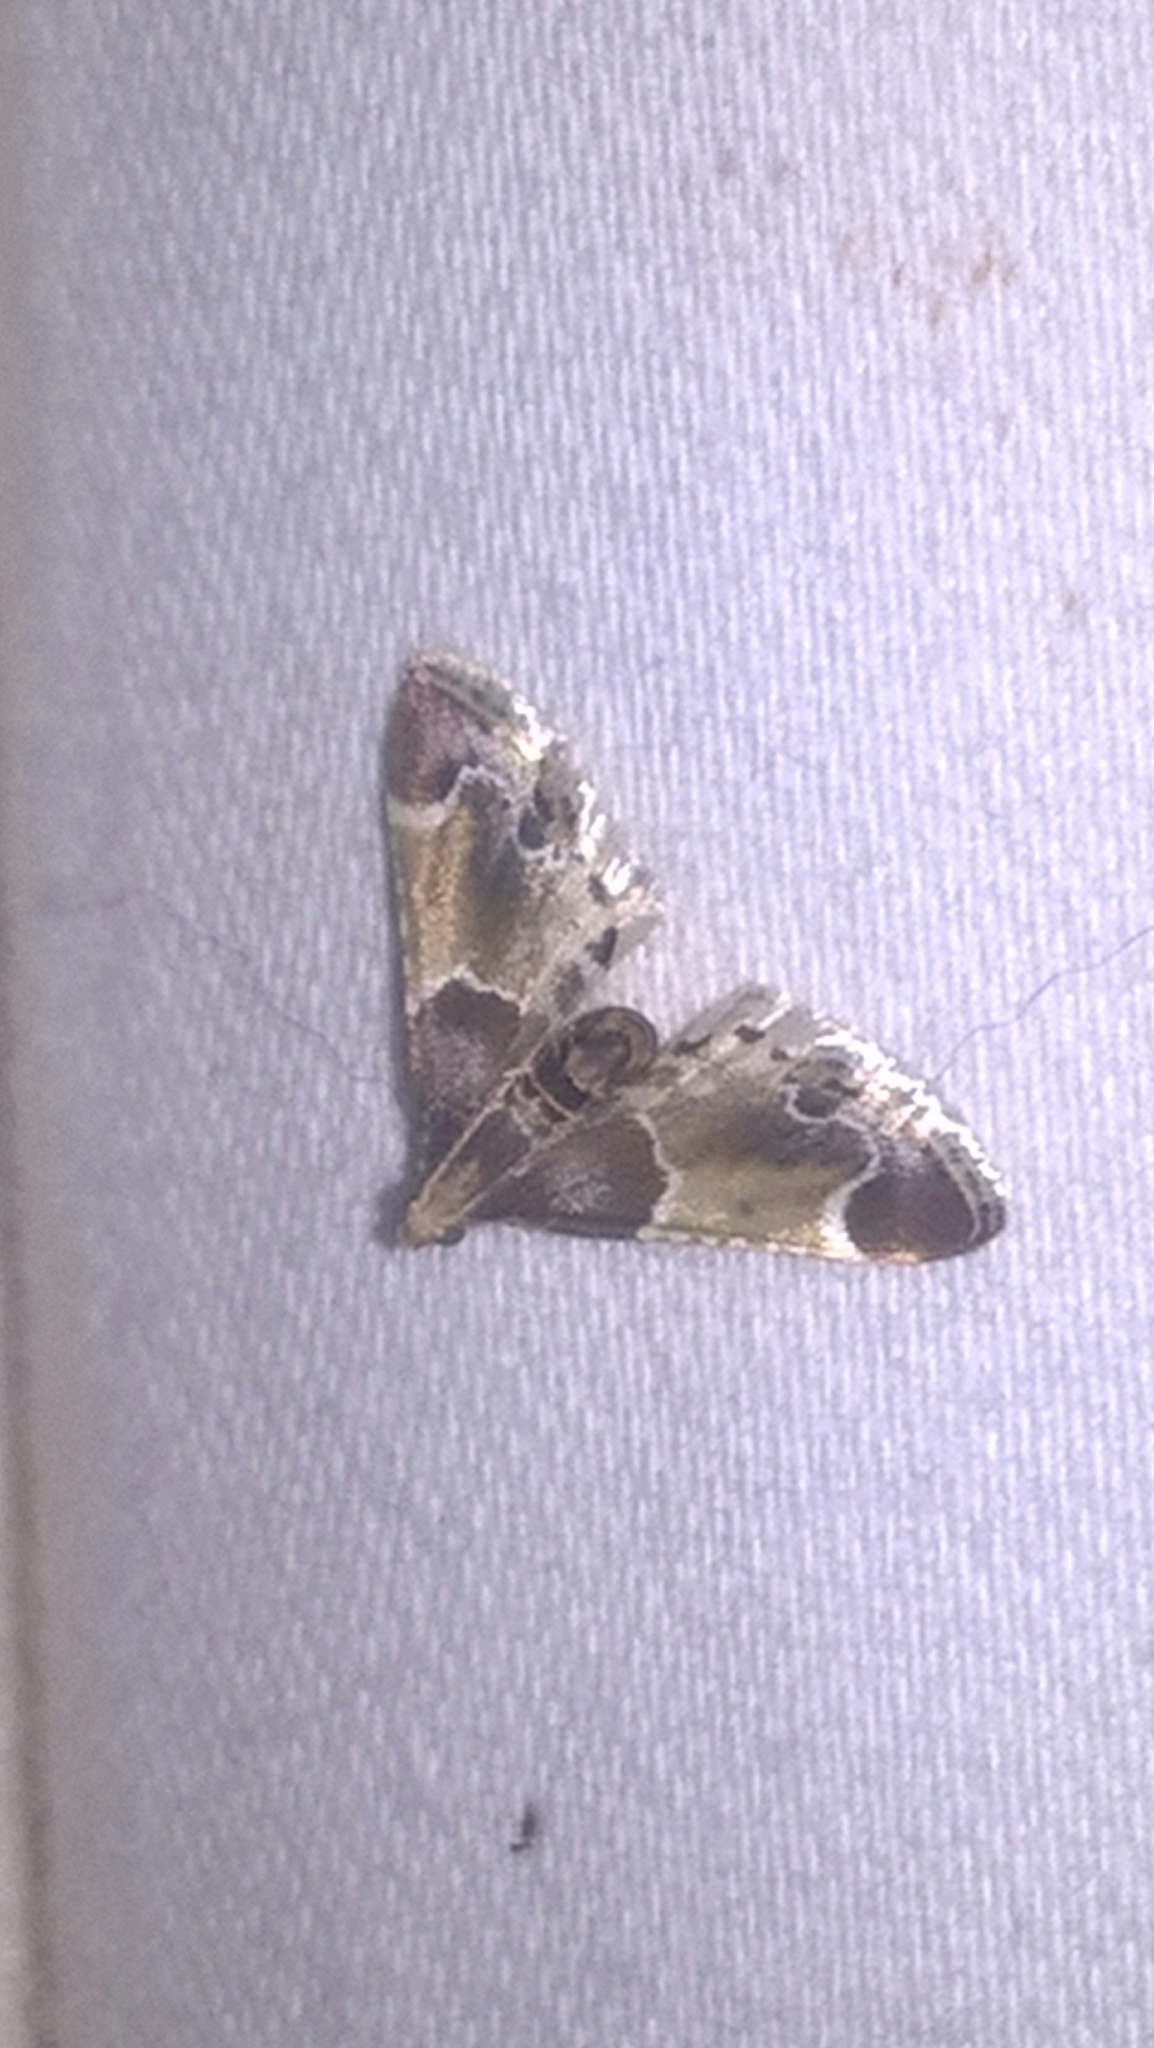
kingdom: Animalia
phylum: Arthropoda
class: Insecta
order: Lepidoptera
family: Pyralidae
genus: Pyralis
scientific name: Pyralis farinalis
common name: Meal moth
